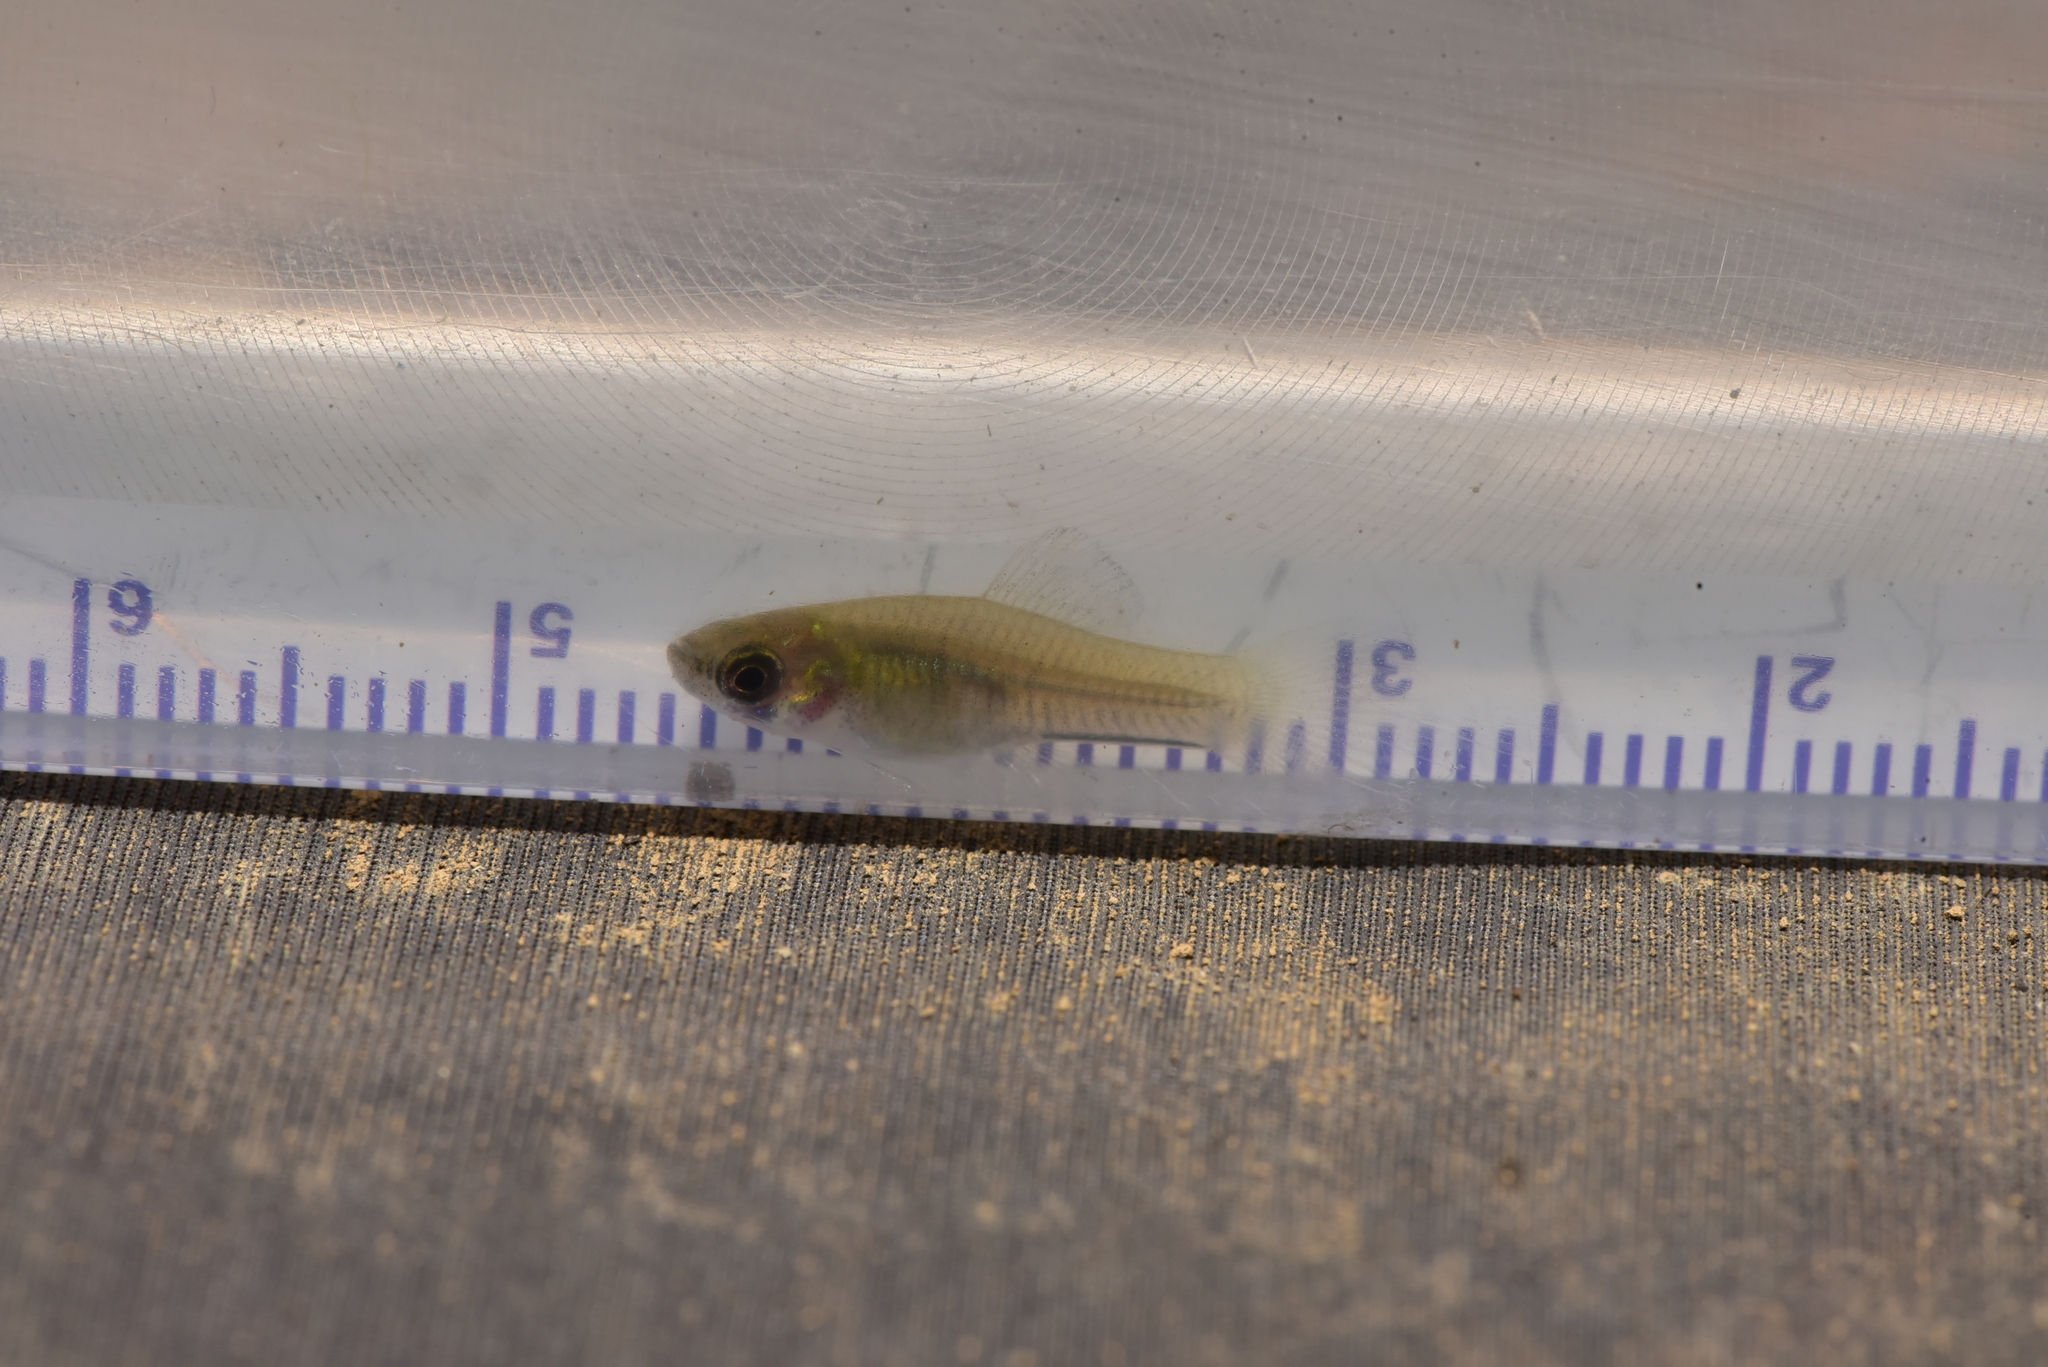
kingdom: Animalia
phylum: Chordata
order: Cyprinodontiformes
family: Poeciliidae
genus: Gambusia
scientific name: Gambusia affinis
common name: Mosquitofish
